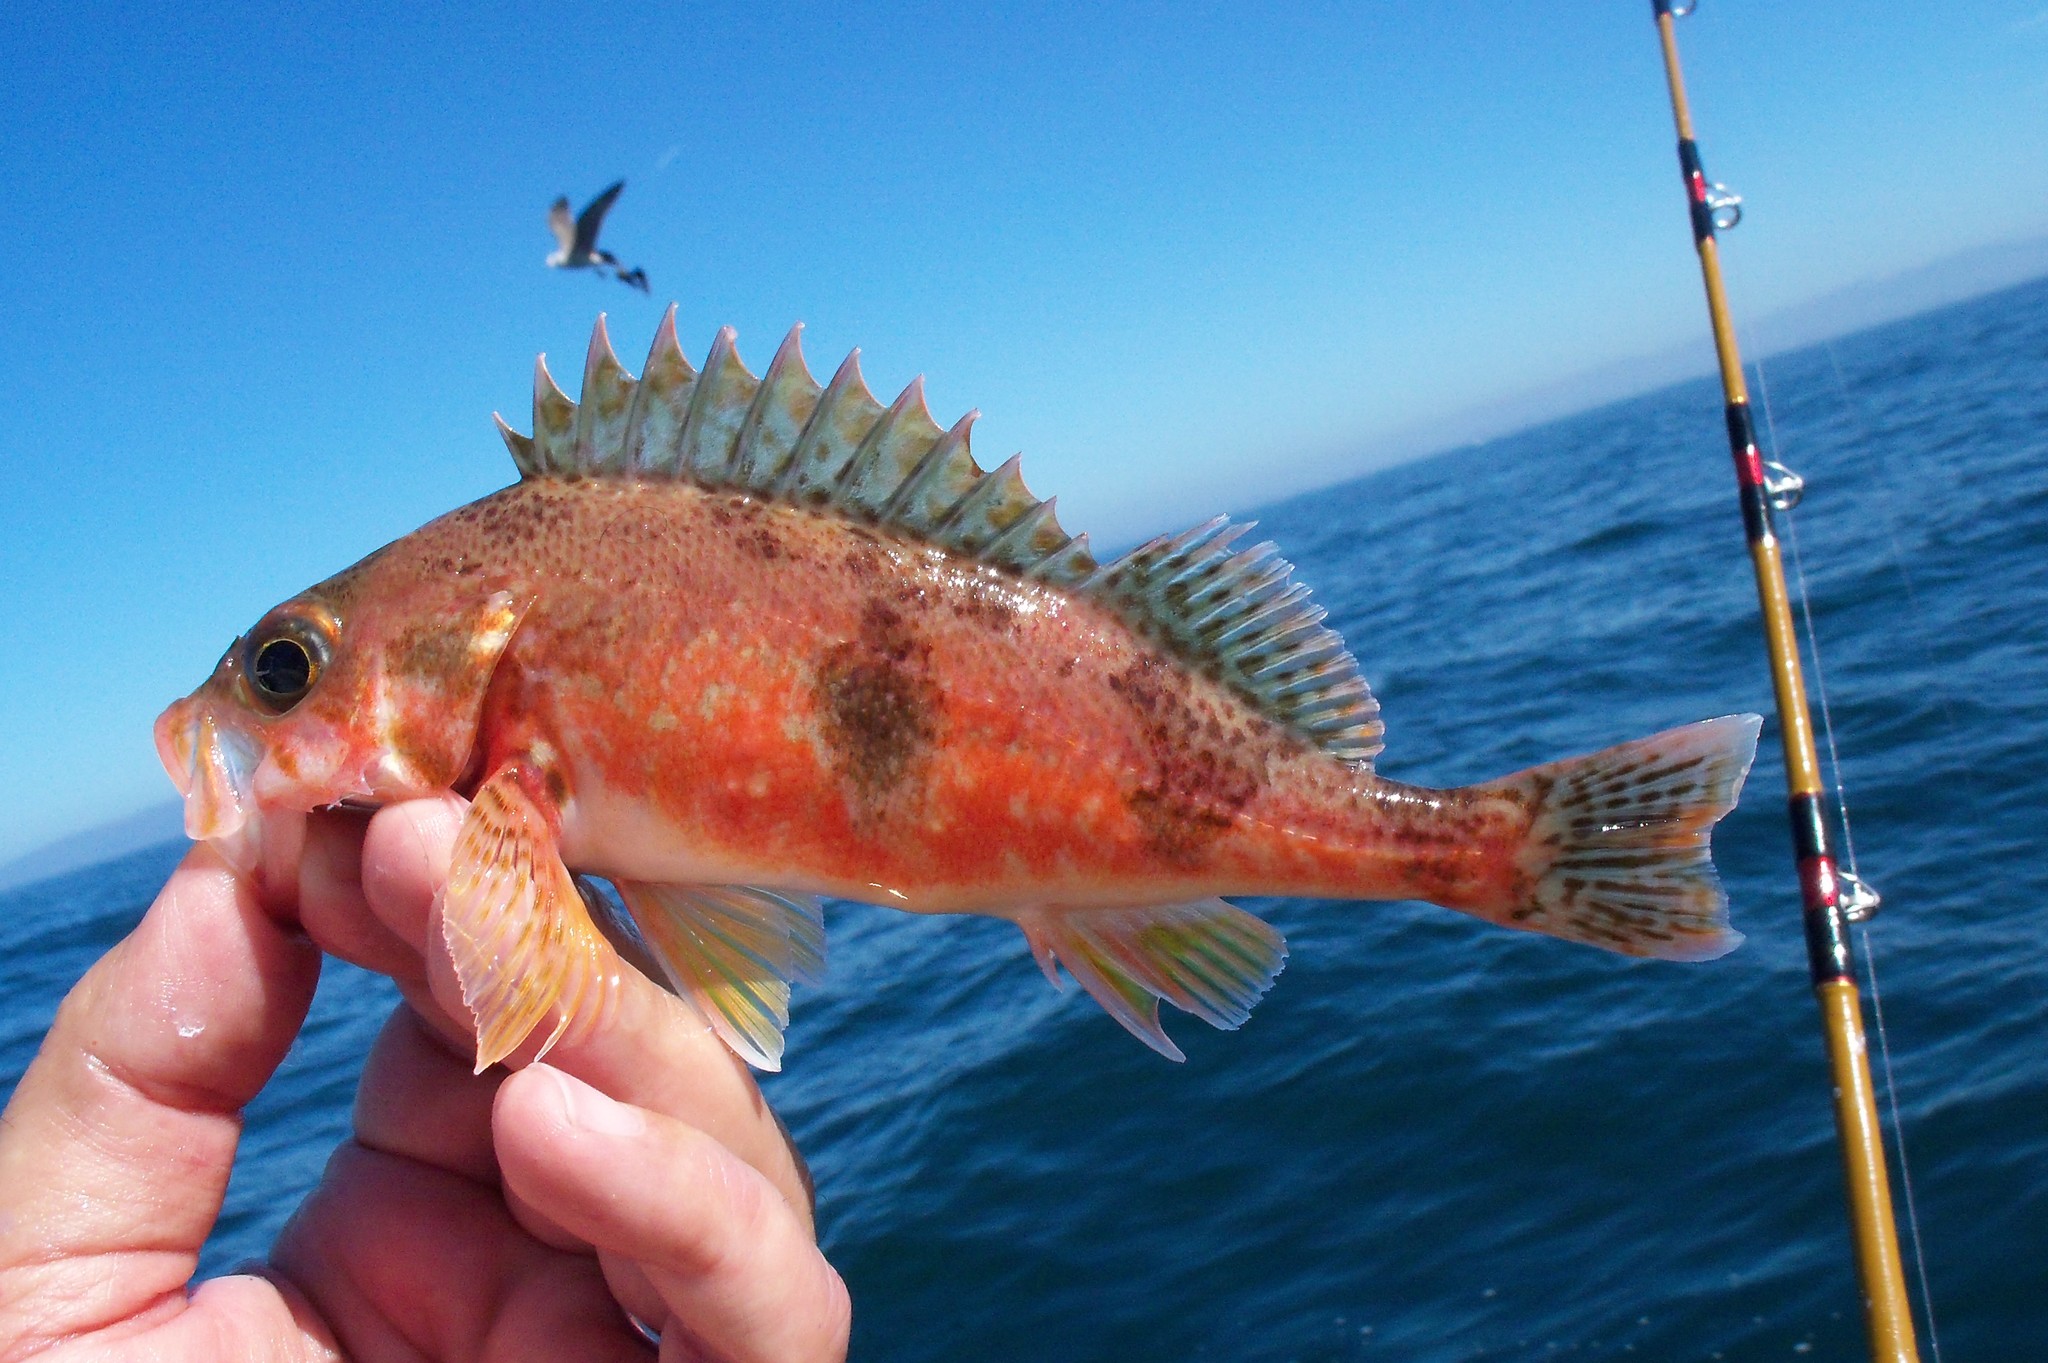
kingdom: Animalia
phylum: Chordata
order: Scorpaeniformes
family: Sebastidae
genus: Sebastes
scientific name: Sebastes semicinctus
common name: Halfbanded rockfish
